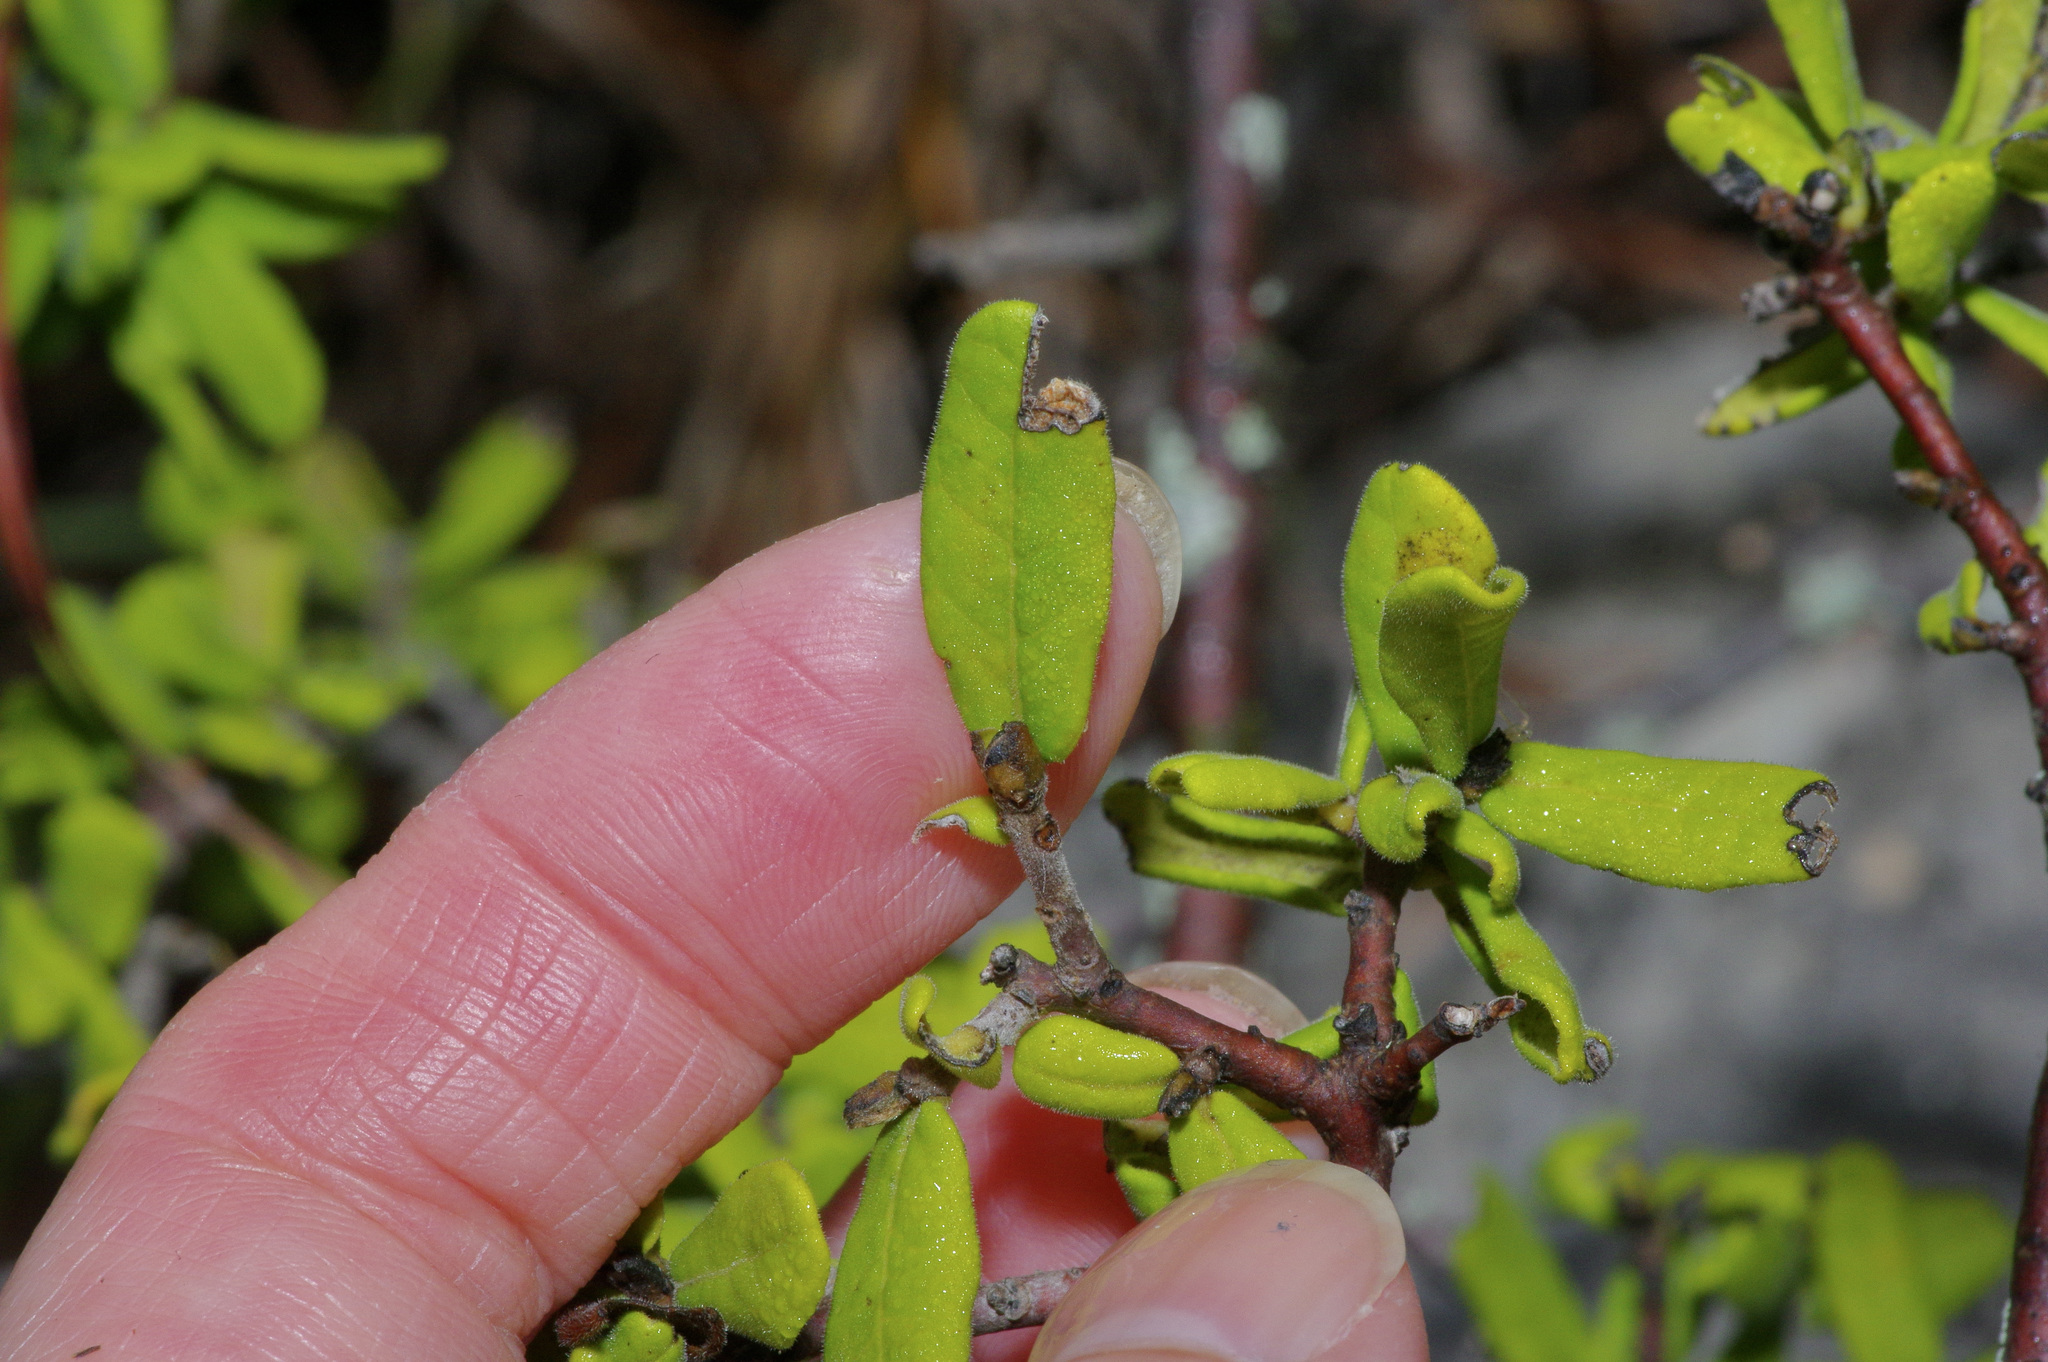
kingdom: Plantae
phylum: Tracheophyta
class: Magnoliopsida
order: Ericales
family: Ebenaceae
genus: Diospyros
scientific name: Diospyros texana
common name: Texas persimmon
